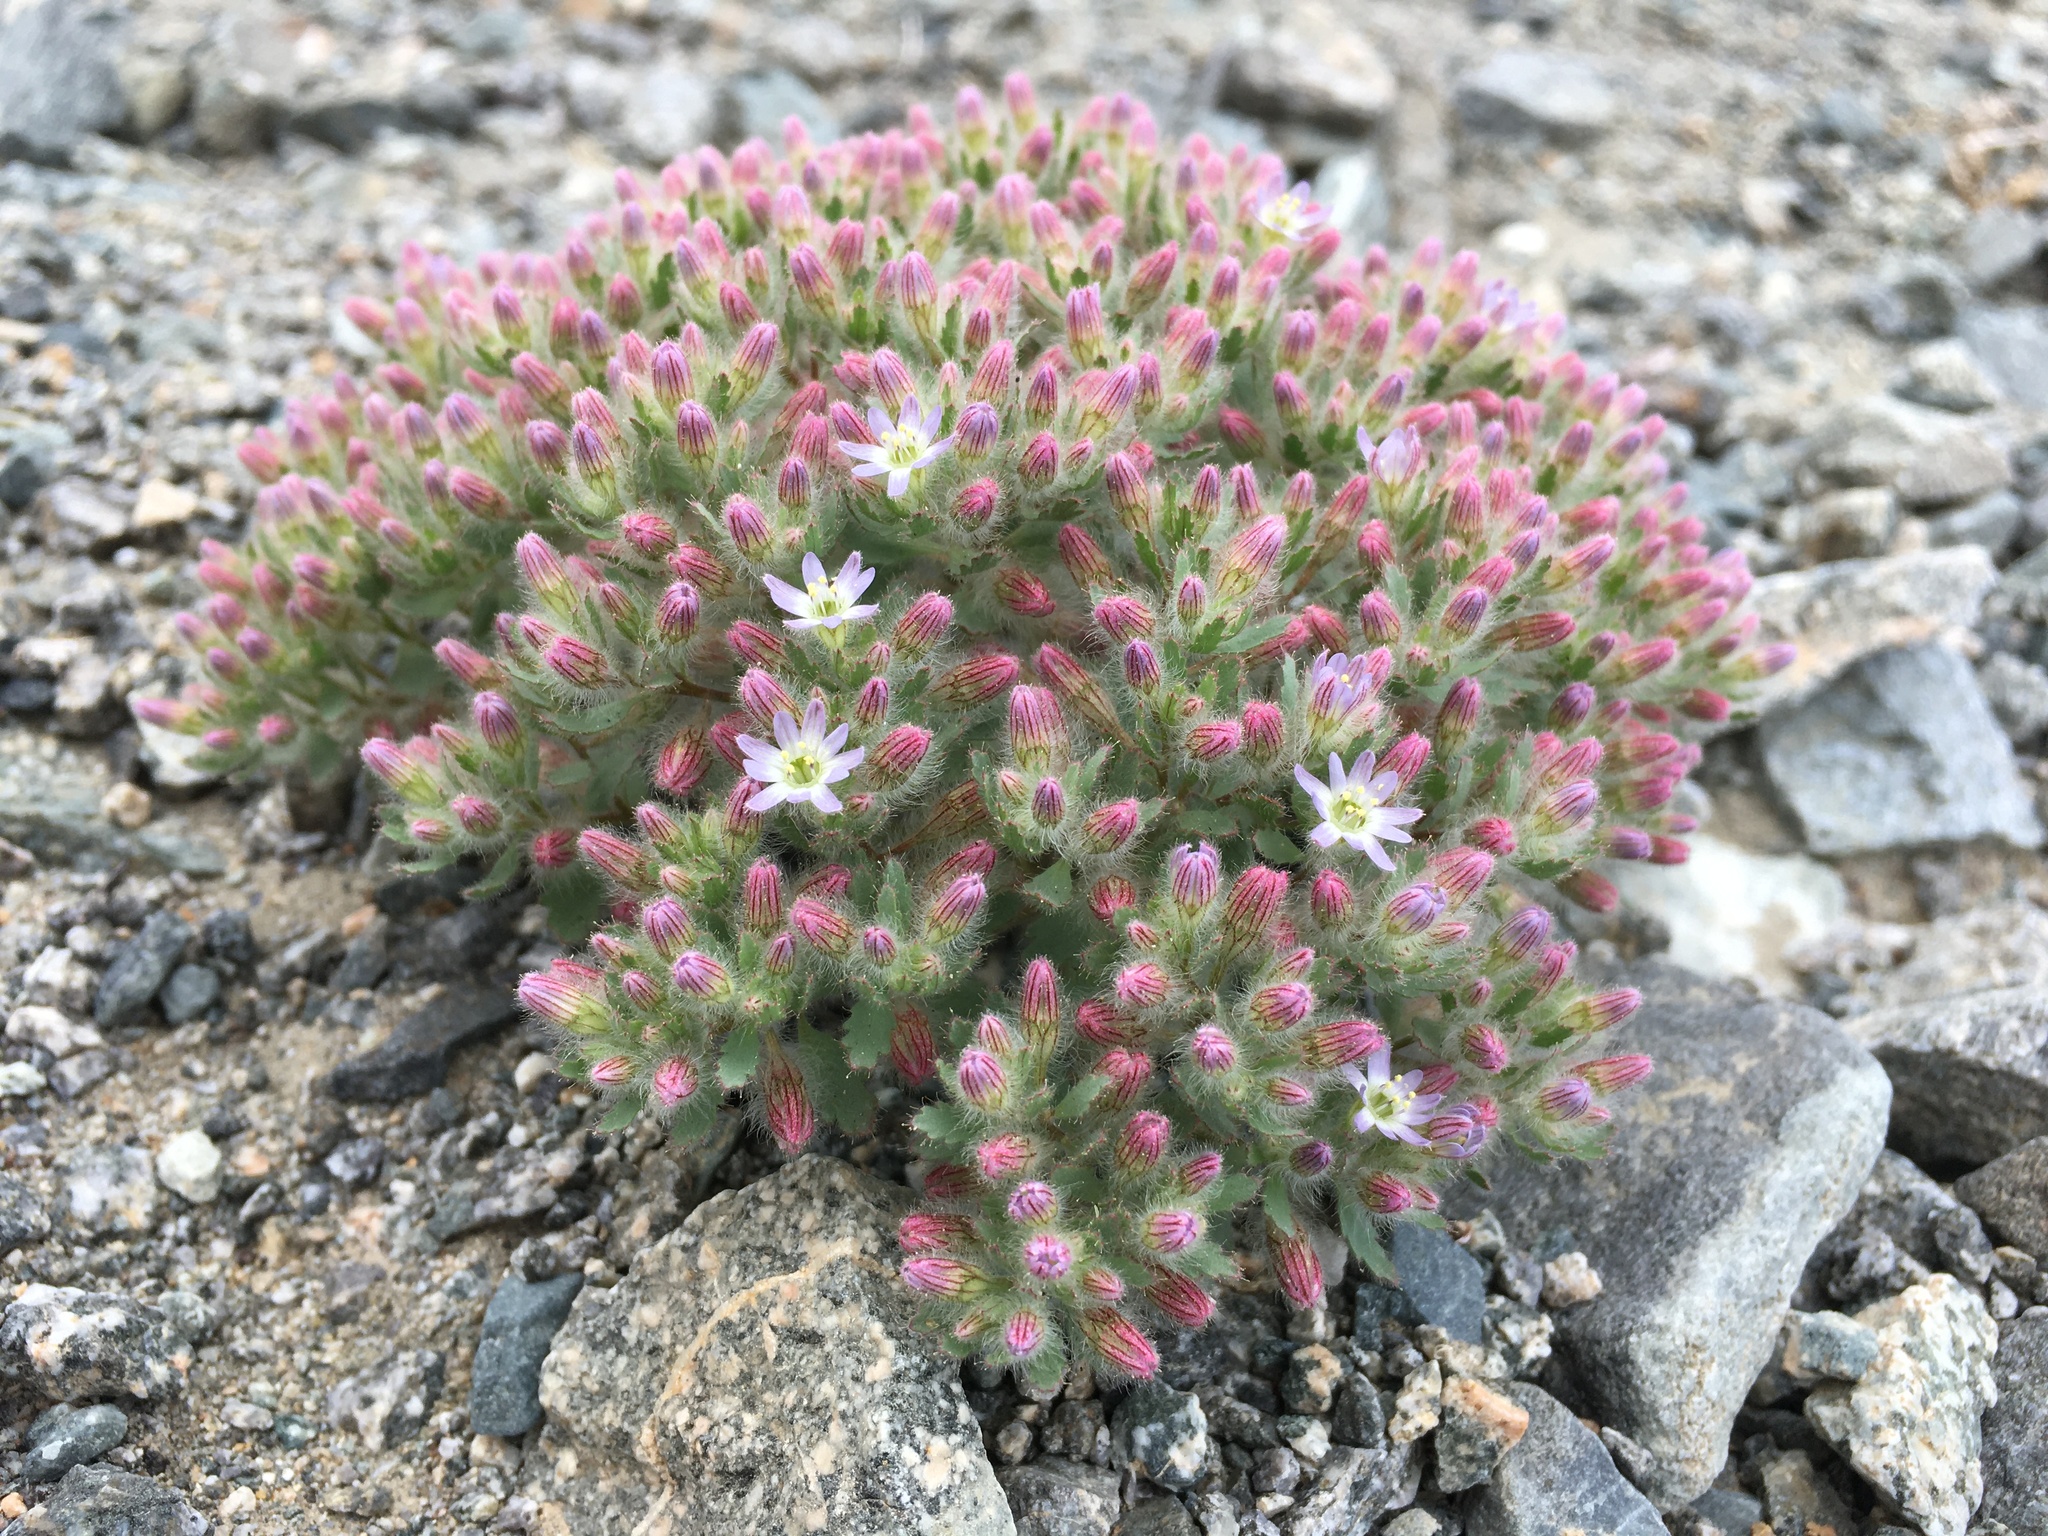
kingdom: Plantae
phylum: Tracheophyta
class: Magnoliopsida
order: Malpighiales
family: Malesherbiaceae
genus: Malesherbia
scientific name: Malesherbia humilis
